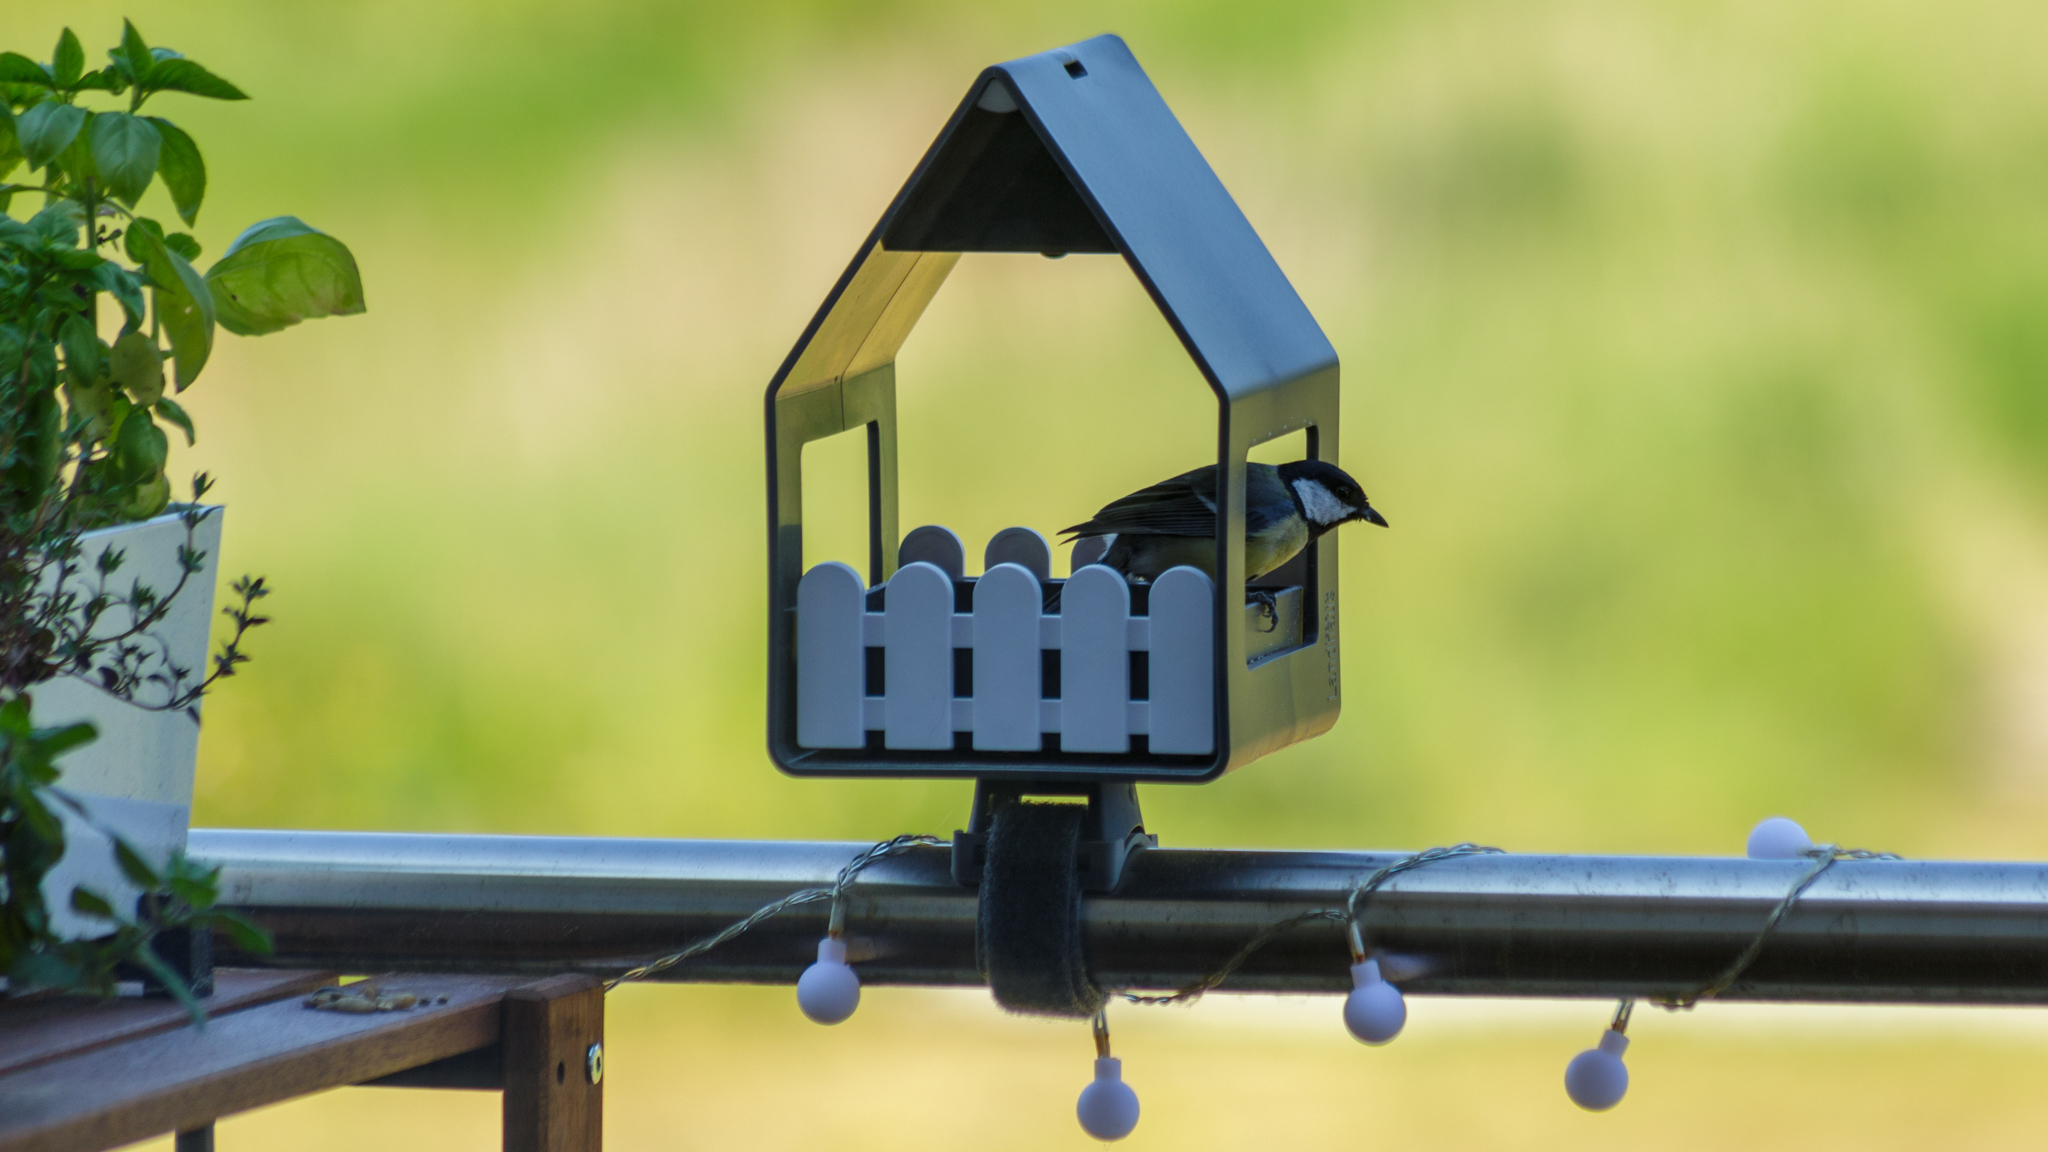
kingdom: Animalia
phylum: Chordata
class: Aves
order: Passeriformes
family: Paridae
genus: Parus
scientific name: Parus major
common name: Great tit
